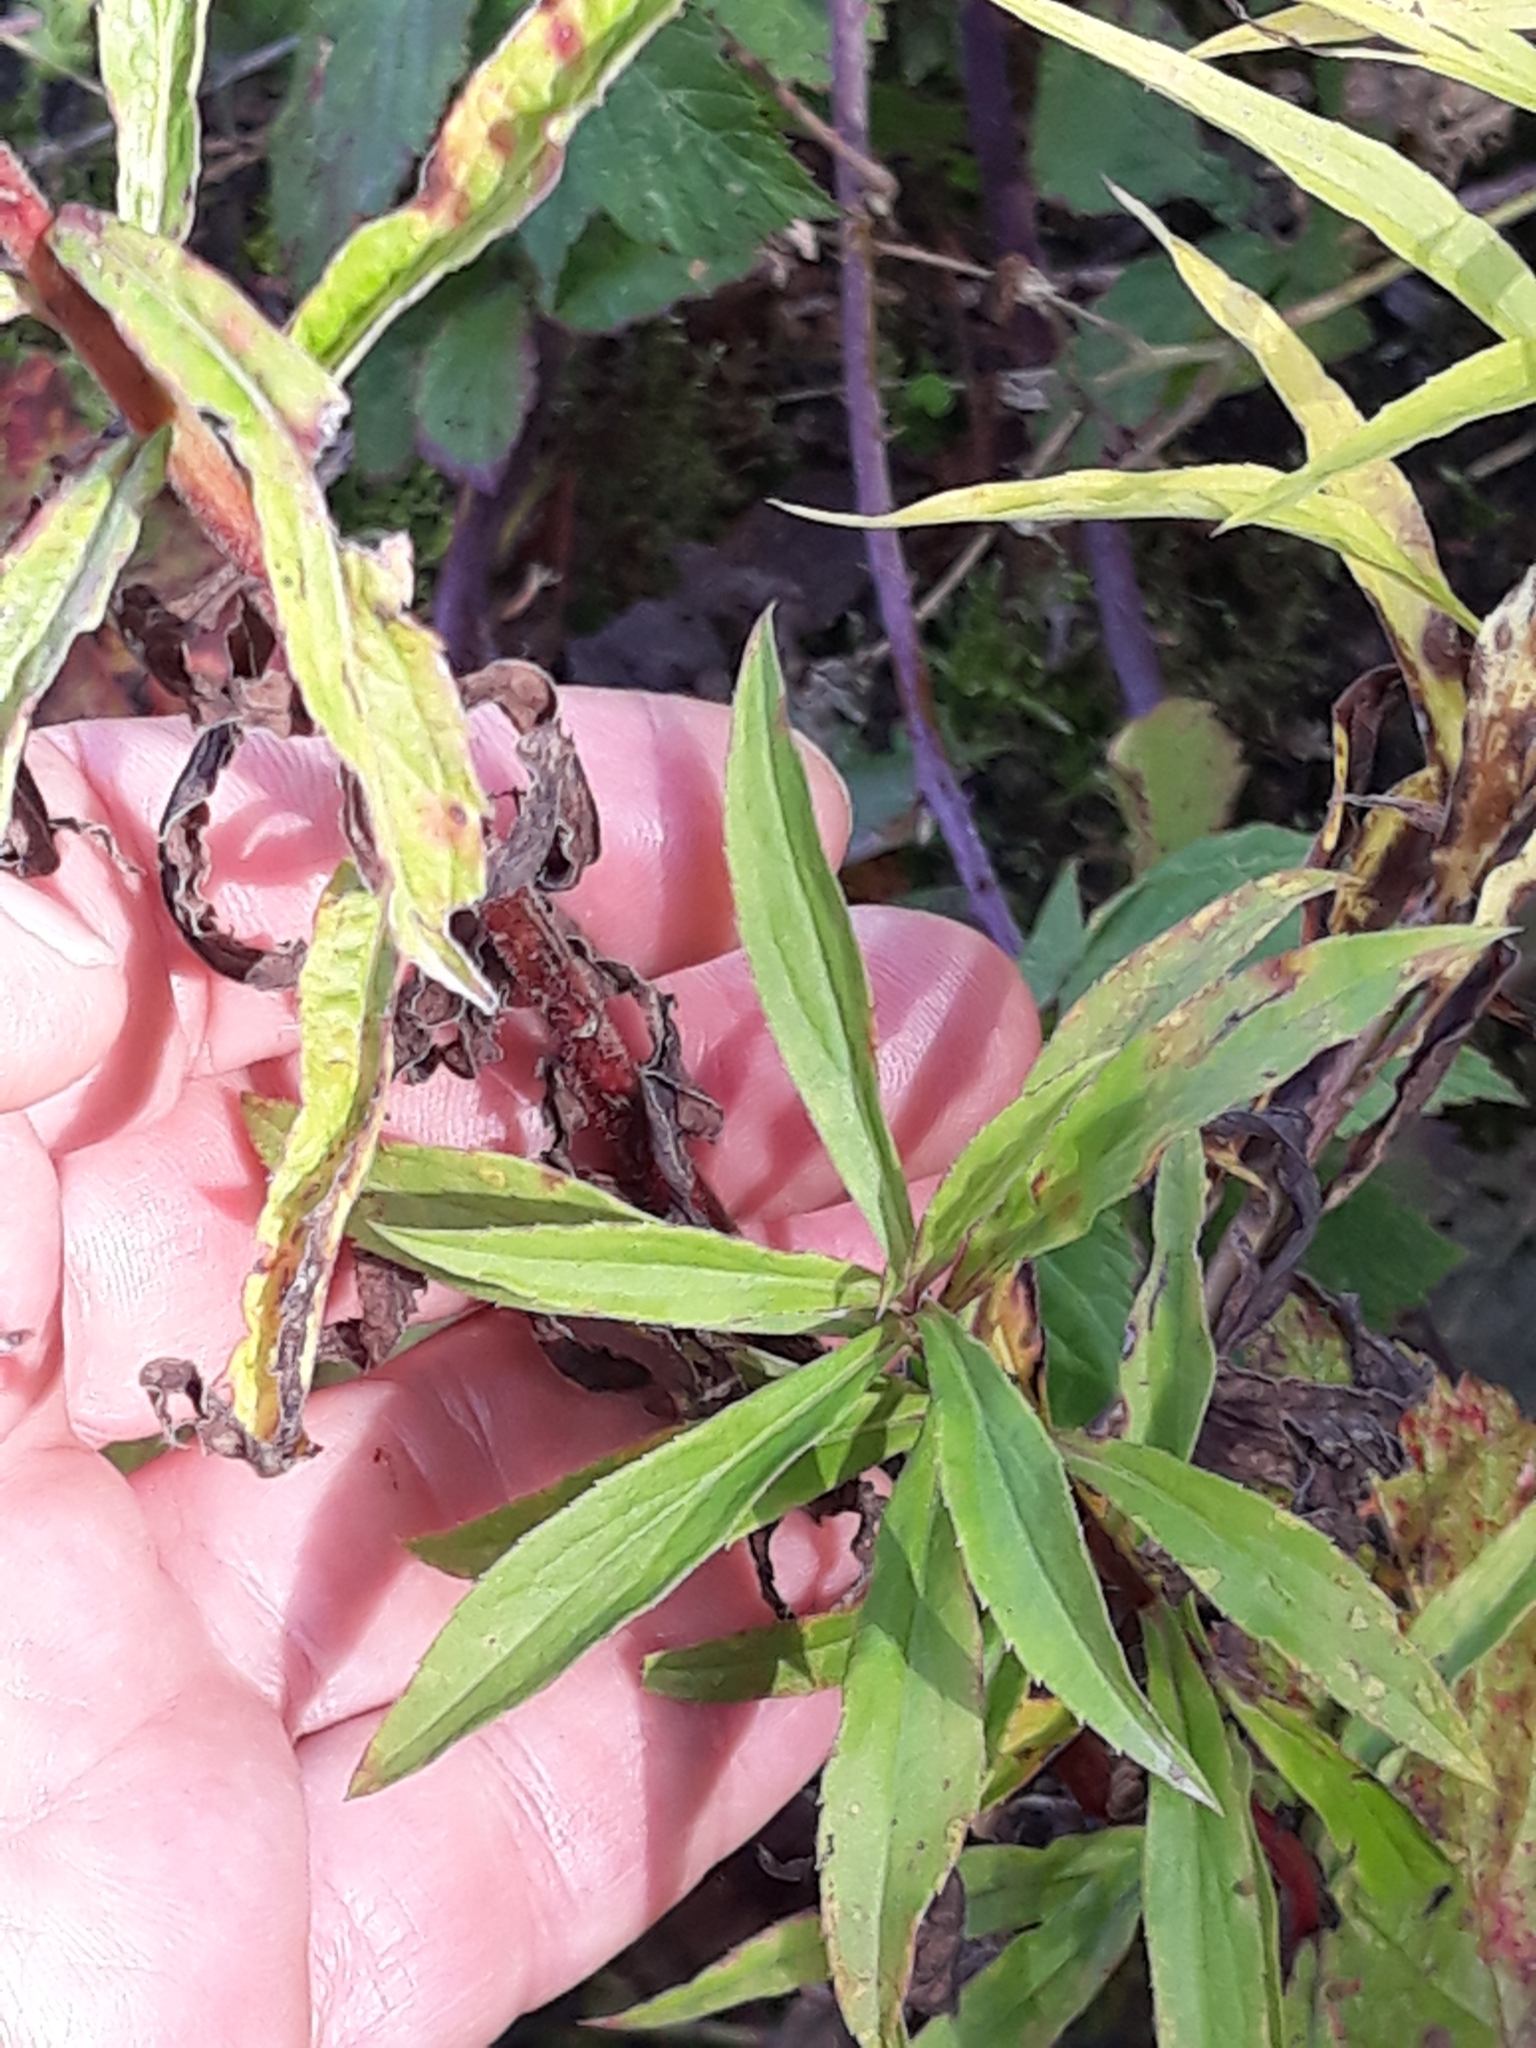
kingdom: Plantae
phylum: Tracheophyta
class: Magnoliopsida
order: Asterales
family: Asteraceae
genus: Solidago
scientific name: Solidago canadensis
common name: Canada goldenrod
